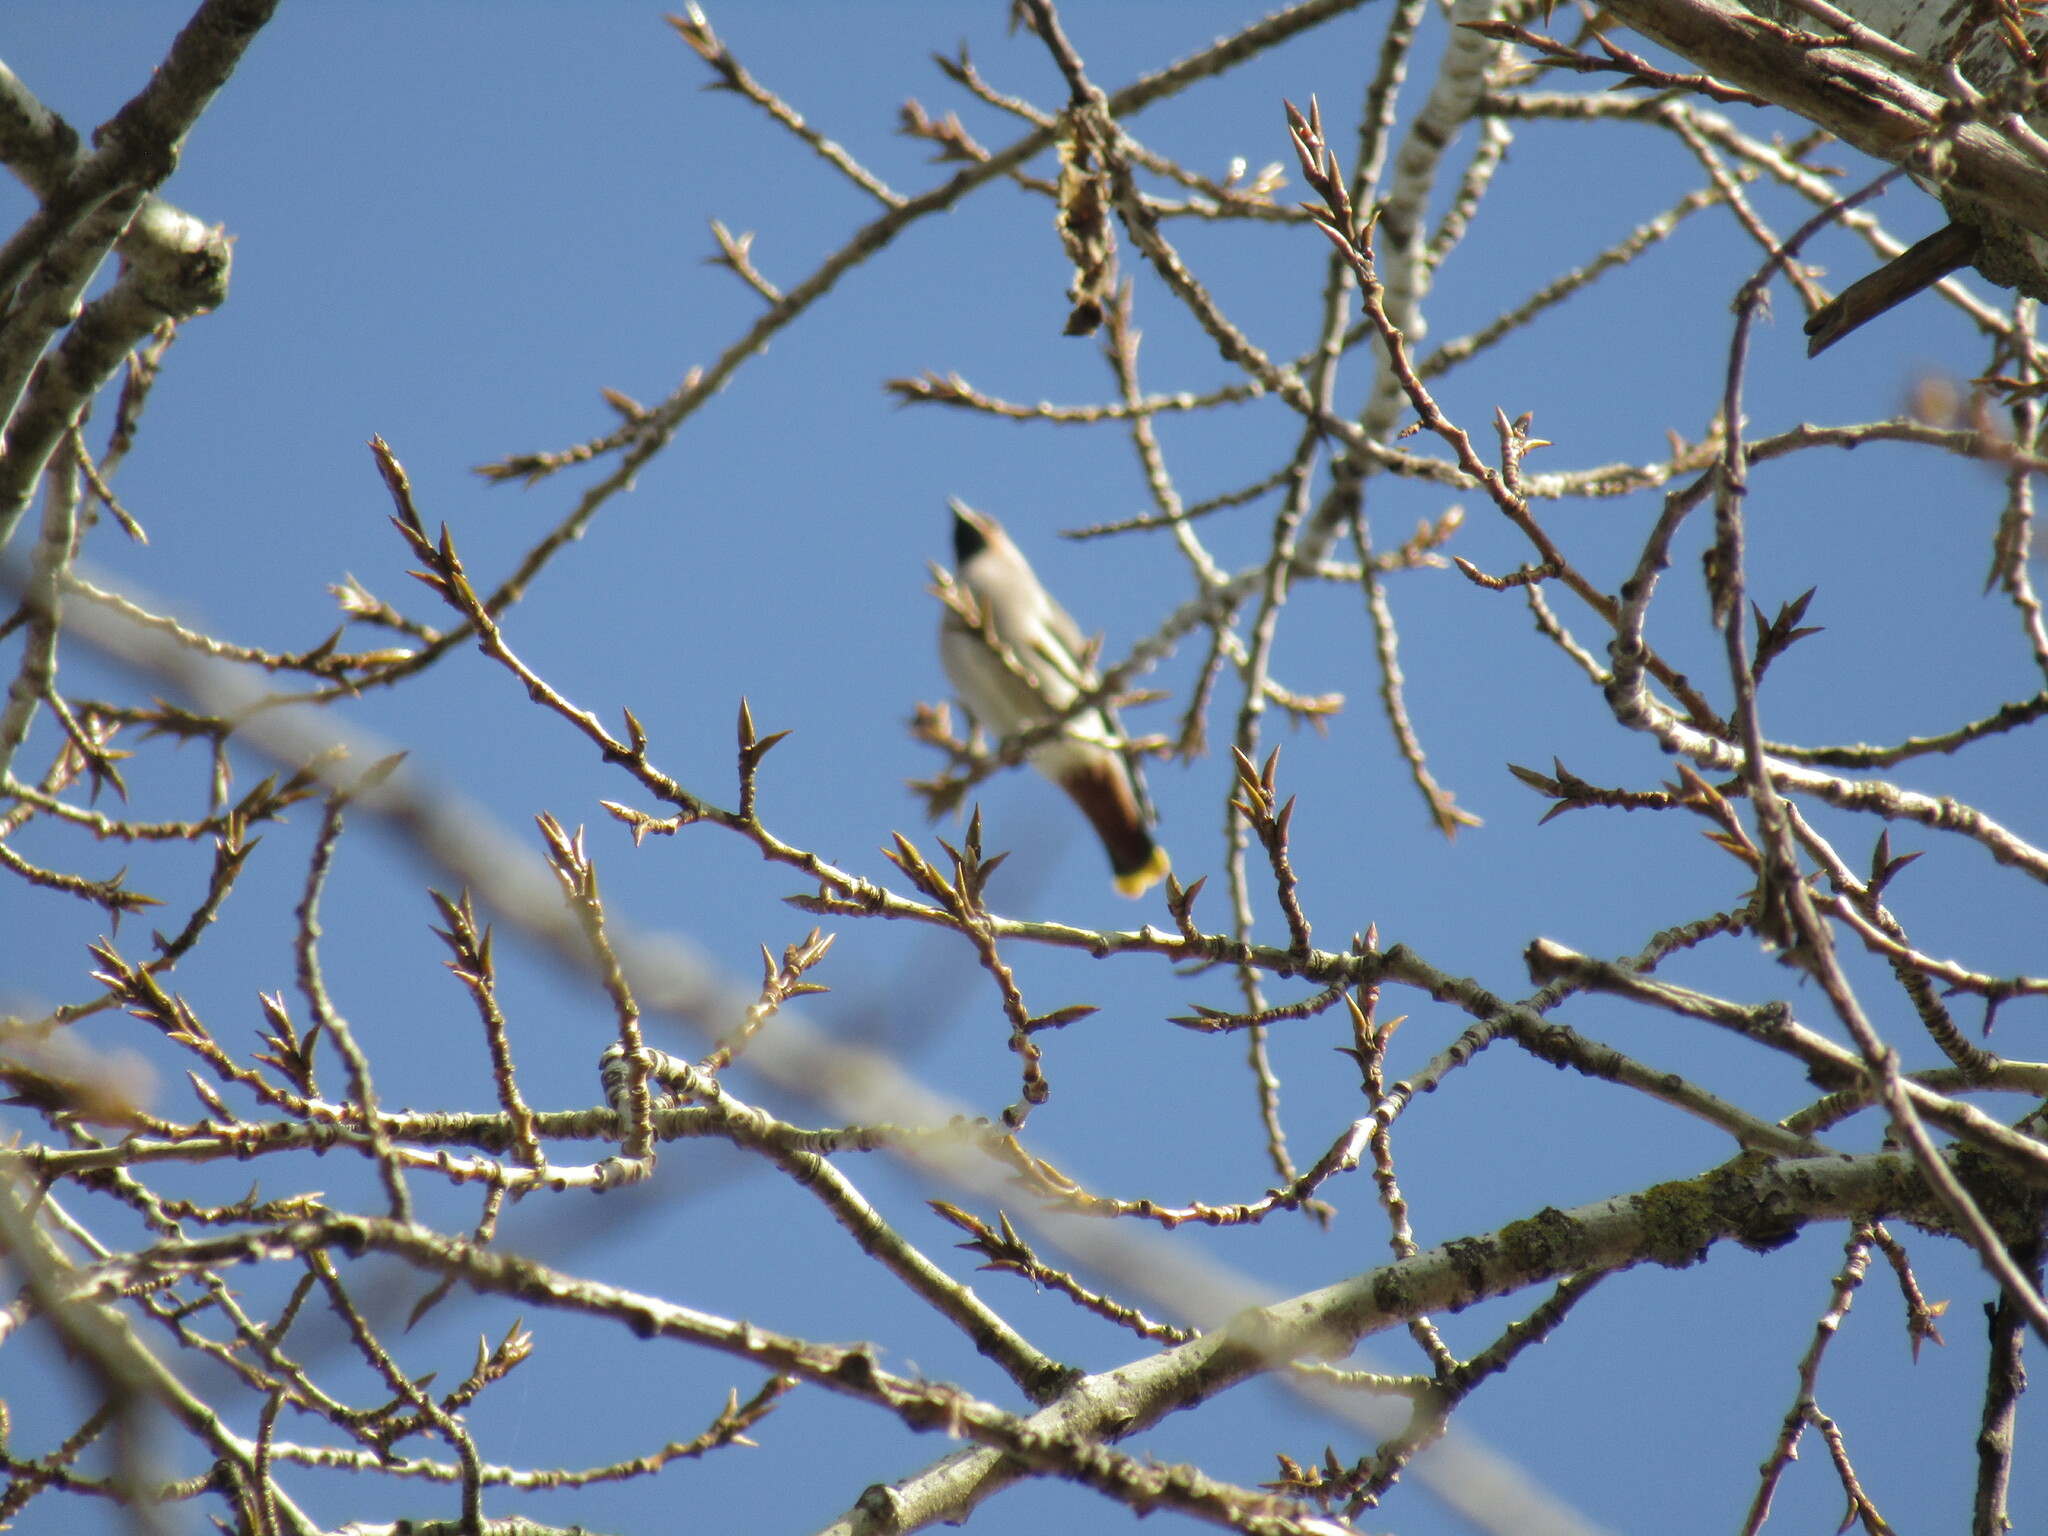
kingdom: Animalia
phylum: Chordata
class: Aves
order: Passeriformes
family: Bombycillidae
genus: Bombycilla
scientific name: Bombycilla garrulus
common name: Bohemian waxwing
